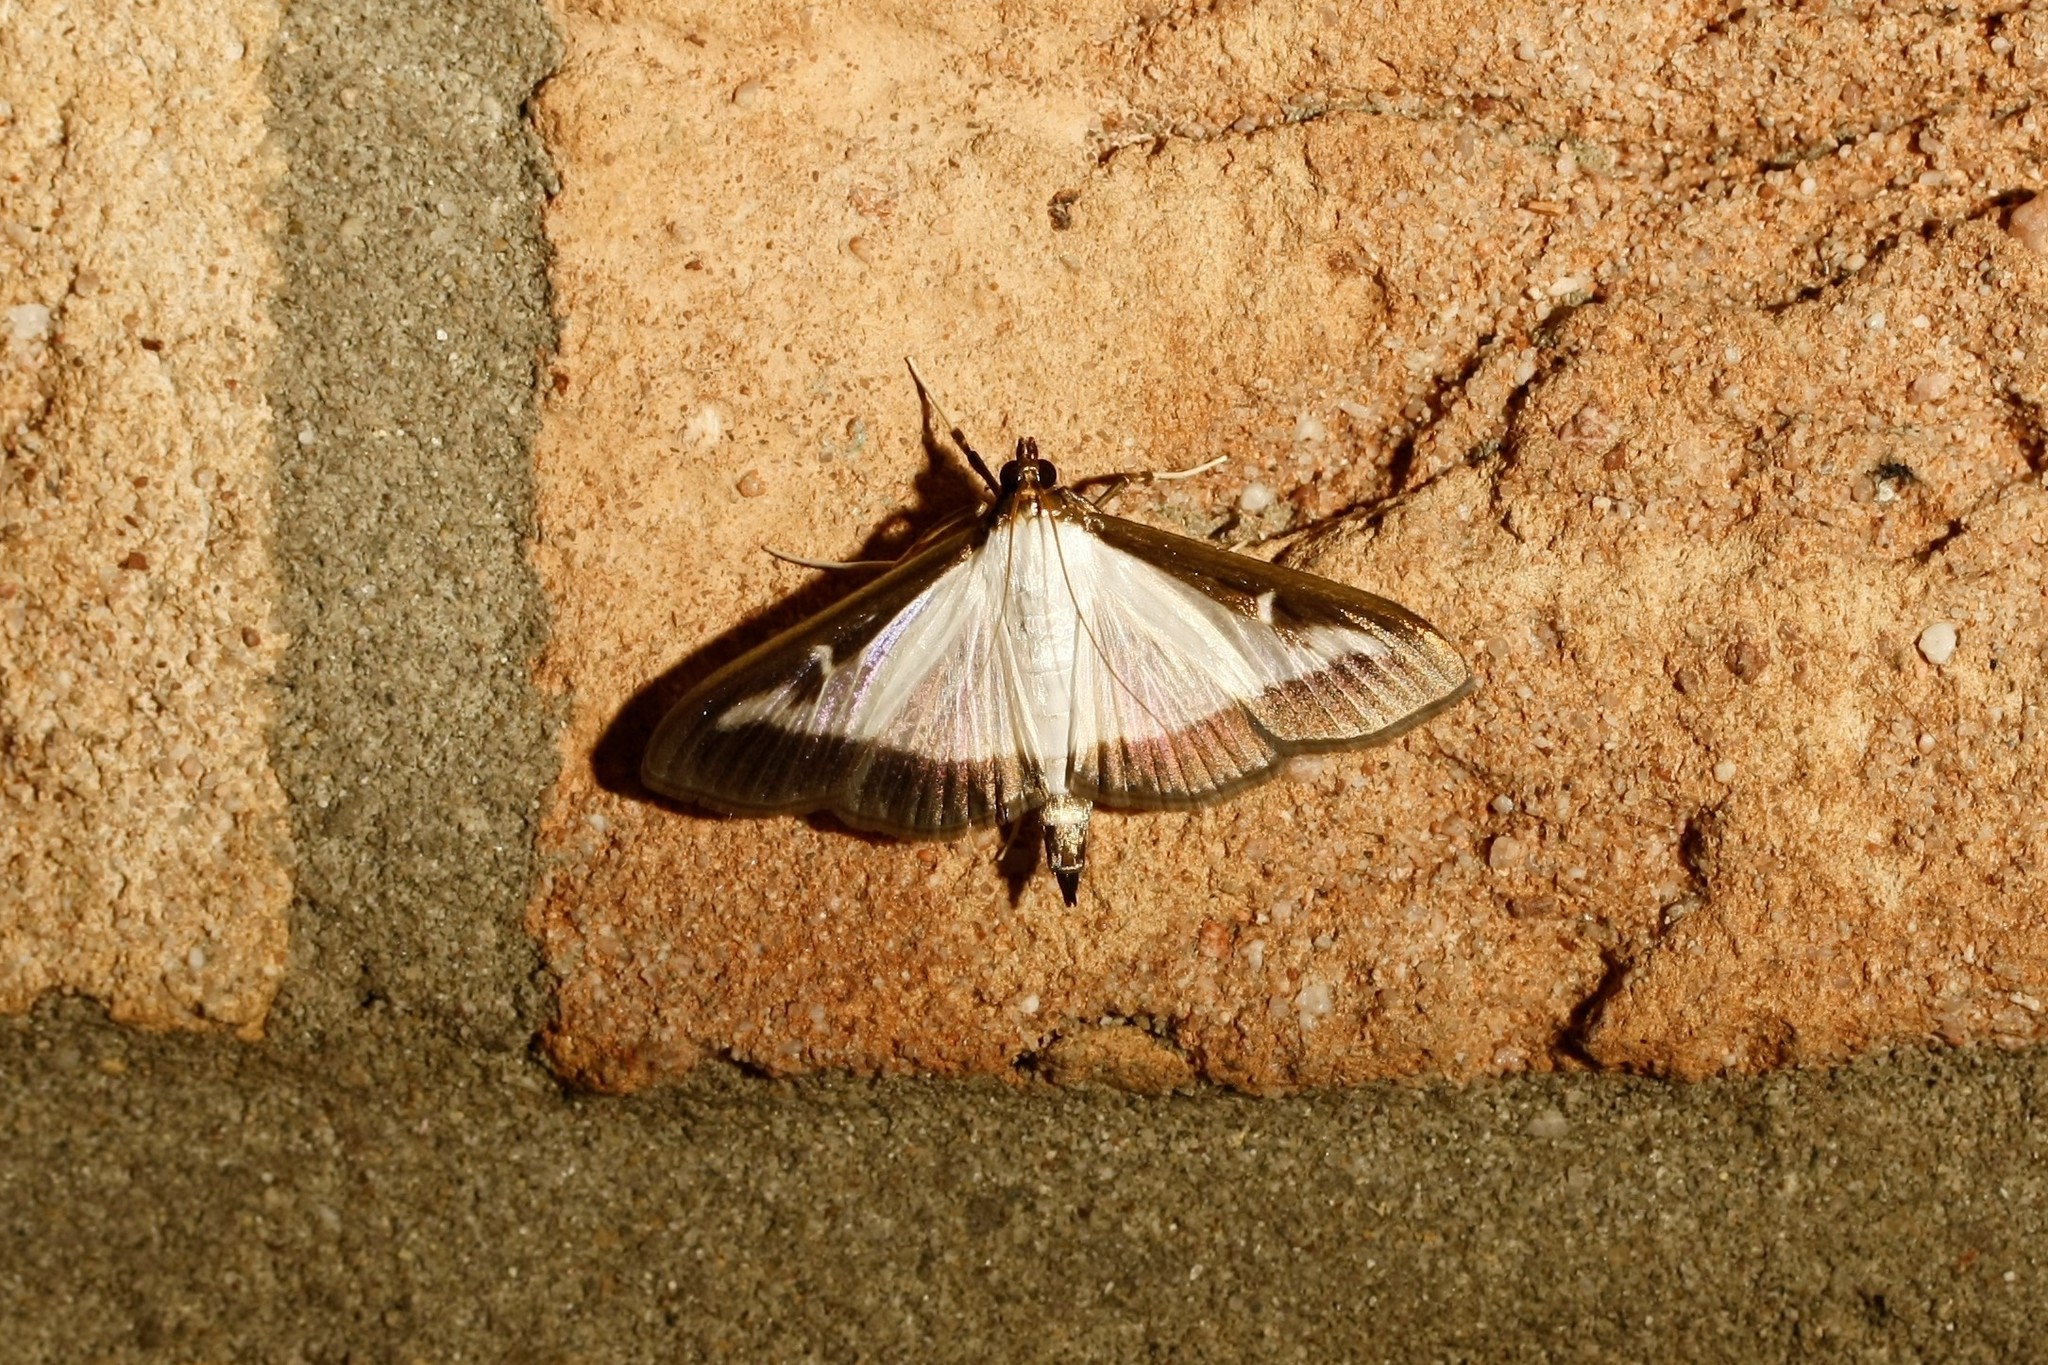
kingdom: Animalia
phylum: Arthropoda
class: Insecta
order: Lepidoptera
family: Crambidae
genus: Cydalima
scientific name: Cydalima perspectalis
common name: Box tree moth
